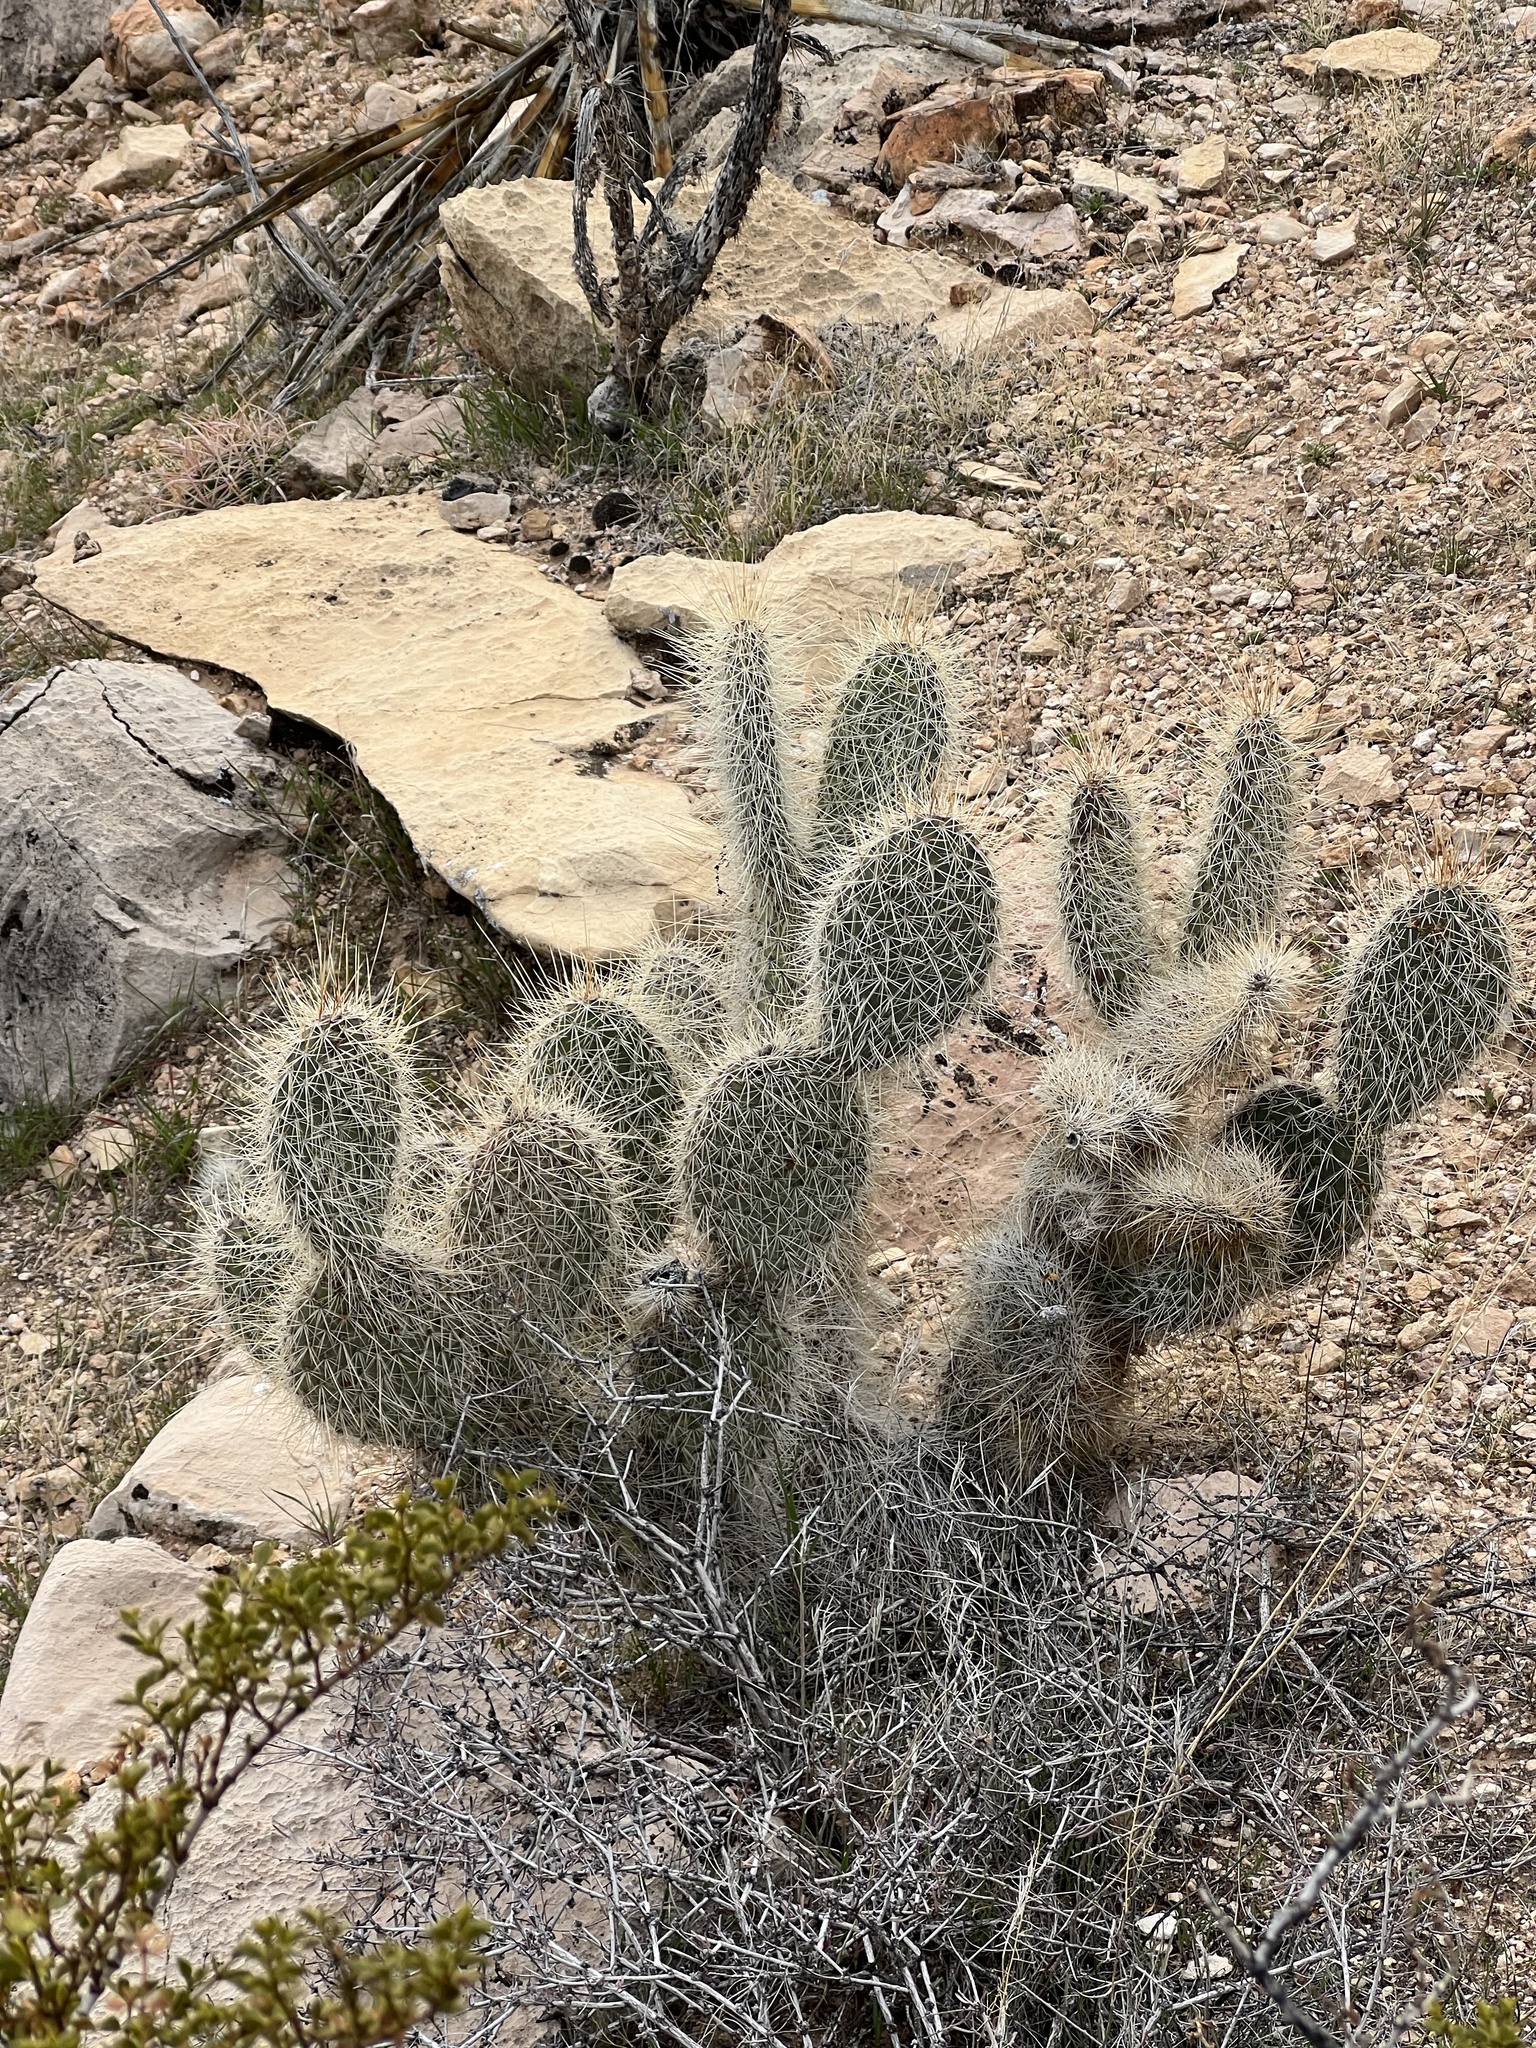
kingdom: Plantae
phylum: Tracheophyta
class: Magnoliopsida
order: Caryophyllales
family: Cactaceae
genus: Opuntia
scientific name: Opuntia polyacantha
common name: Plains prickly-pear
